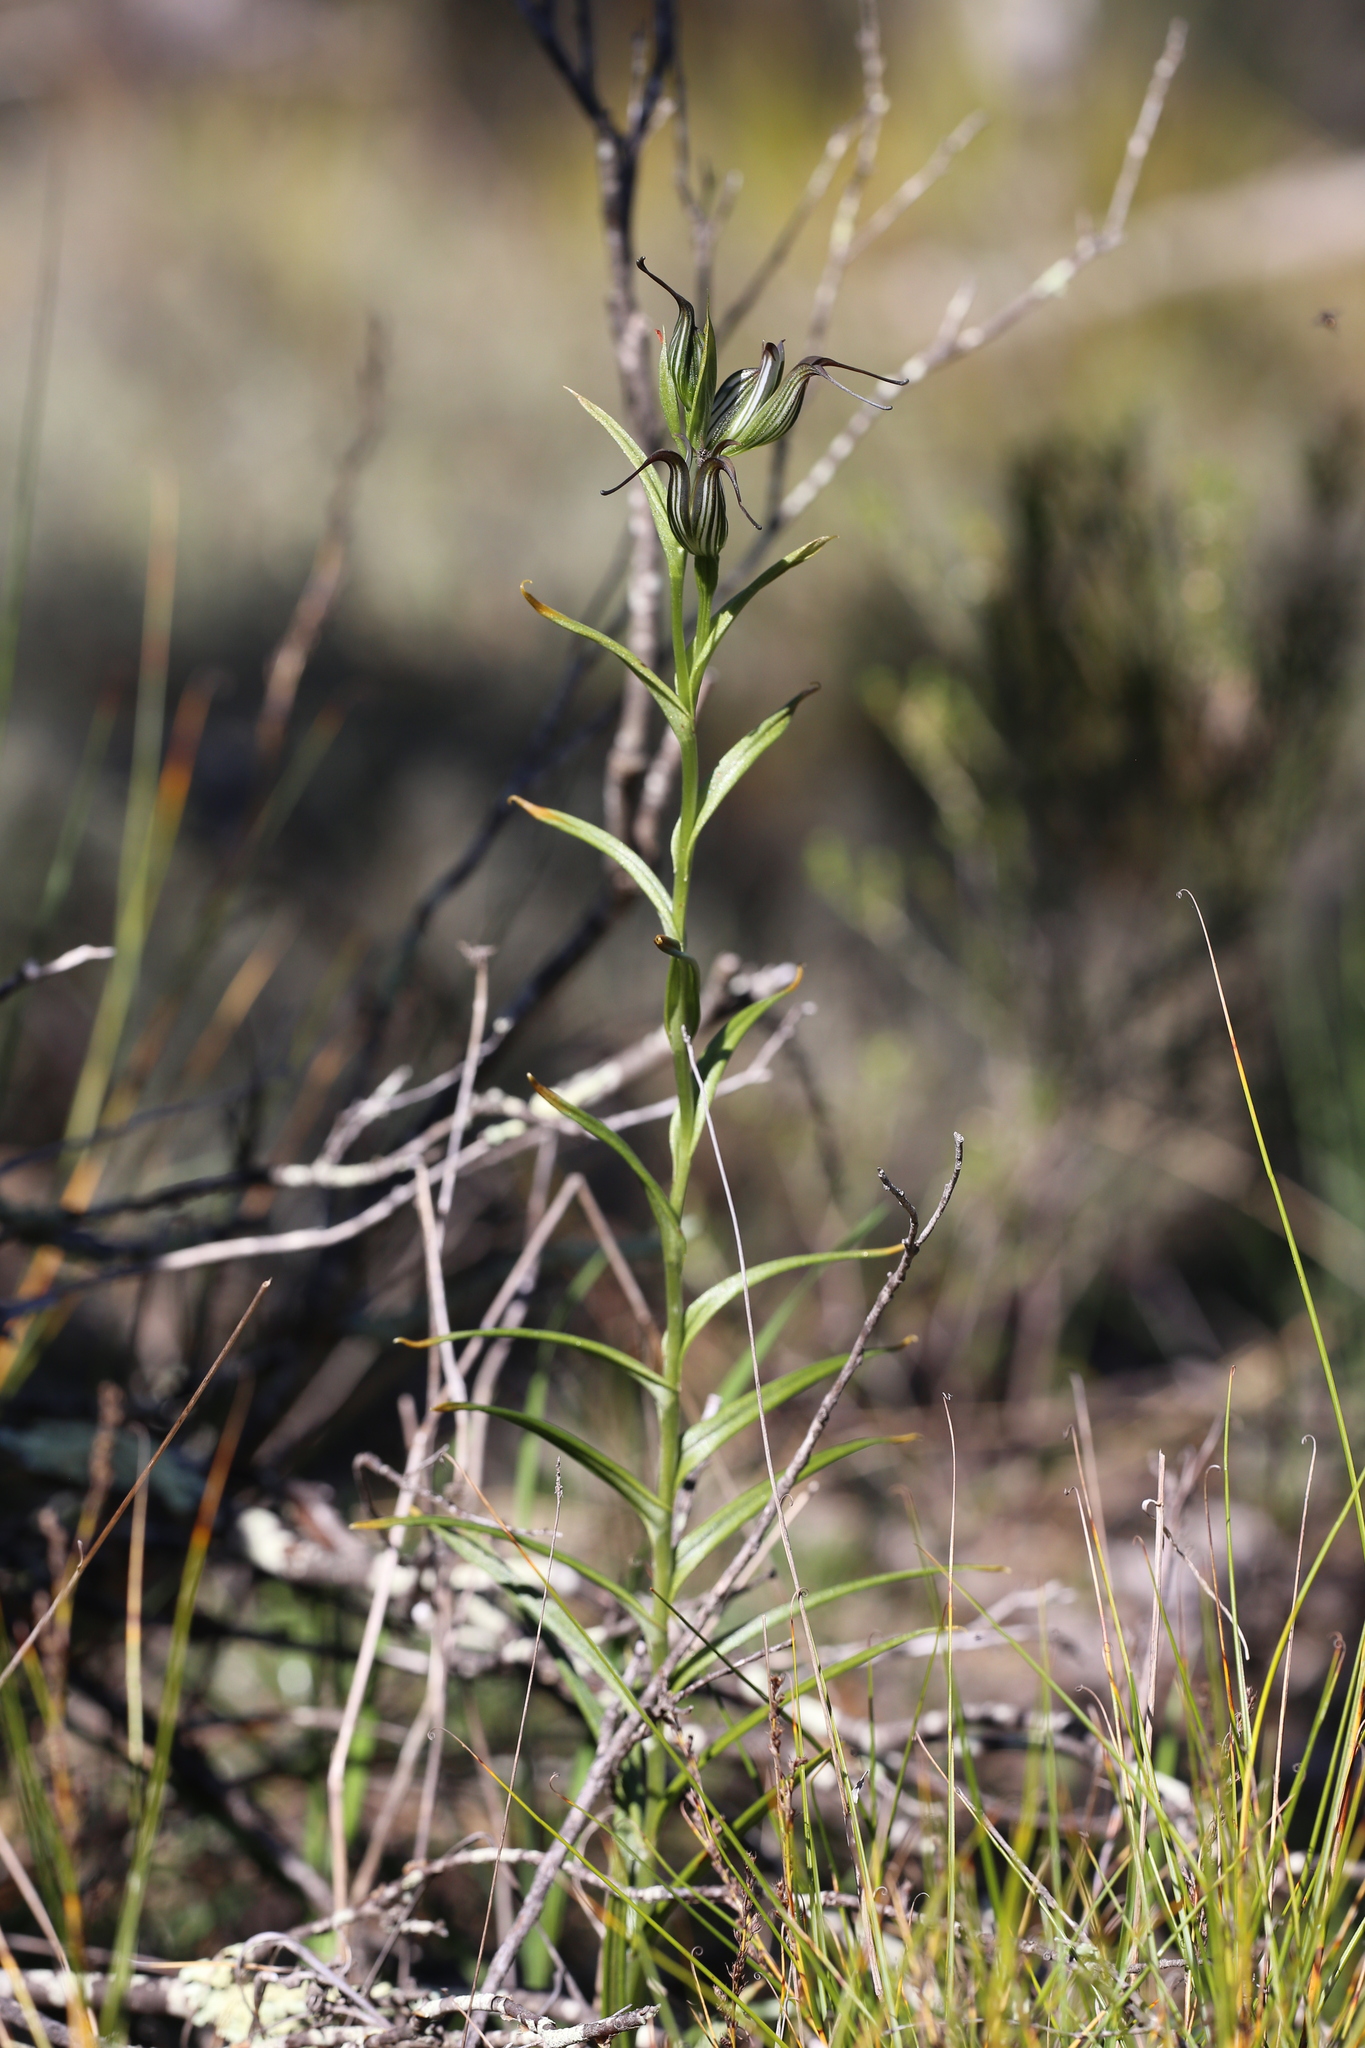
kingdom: Plantae
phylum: Tracheophyta
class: Liliopsida
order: Asparagales
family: Orchidaceae
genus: Pterostylis
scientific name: Pterostylis recurva
